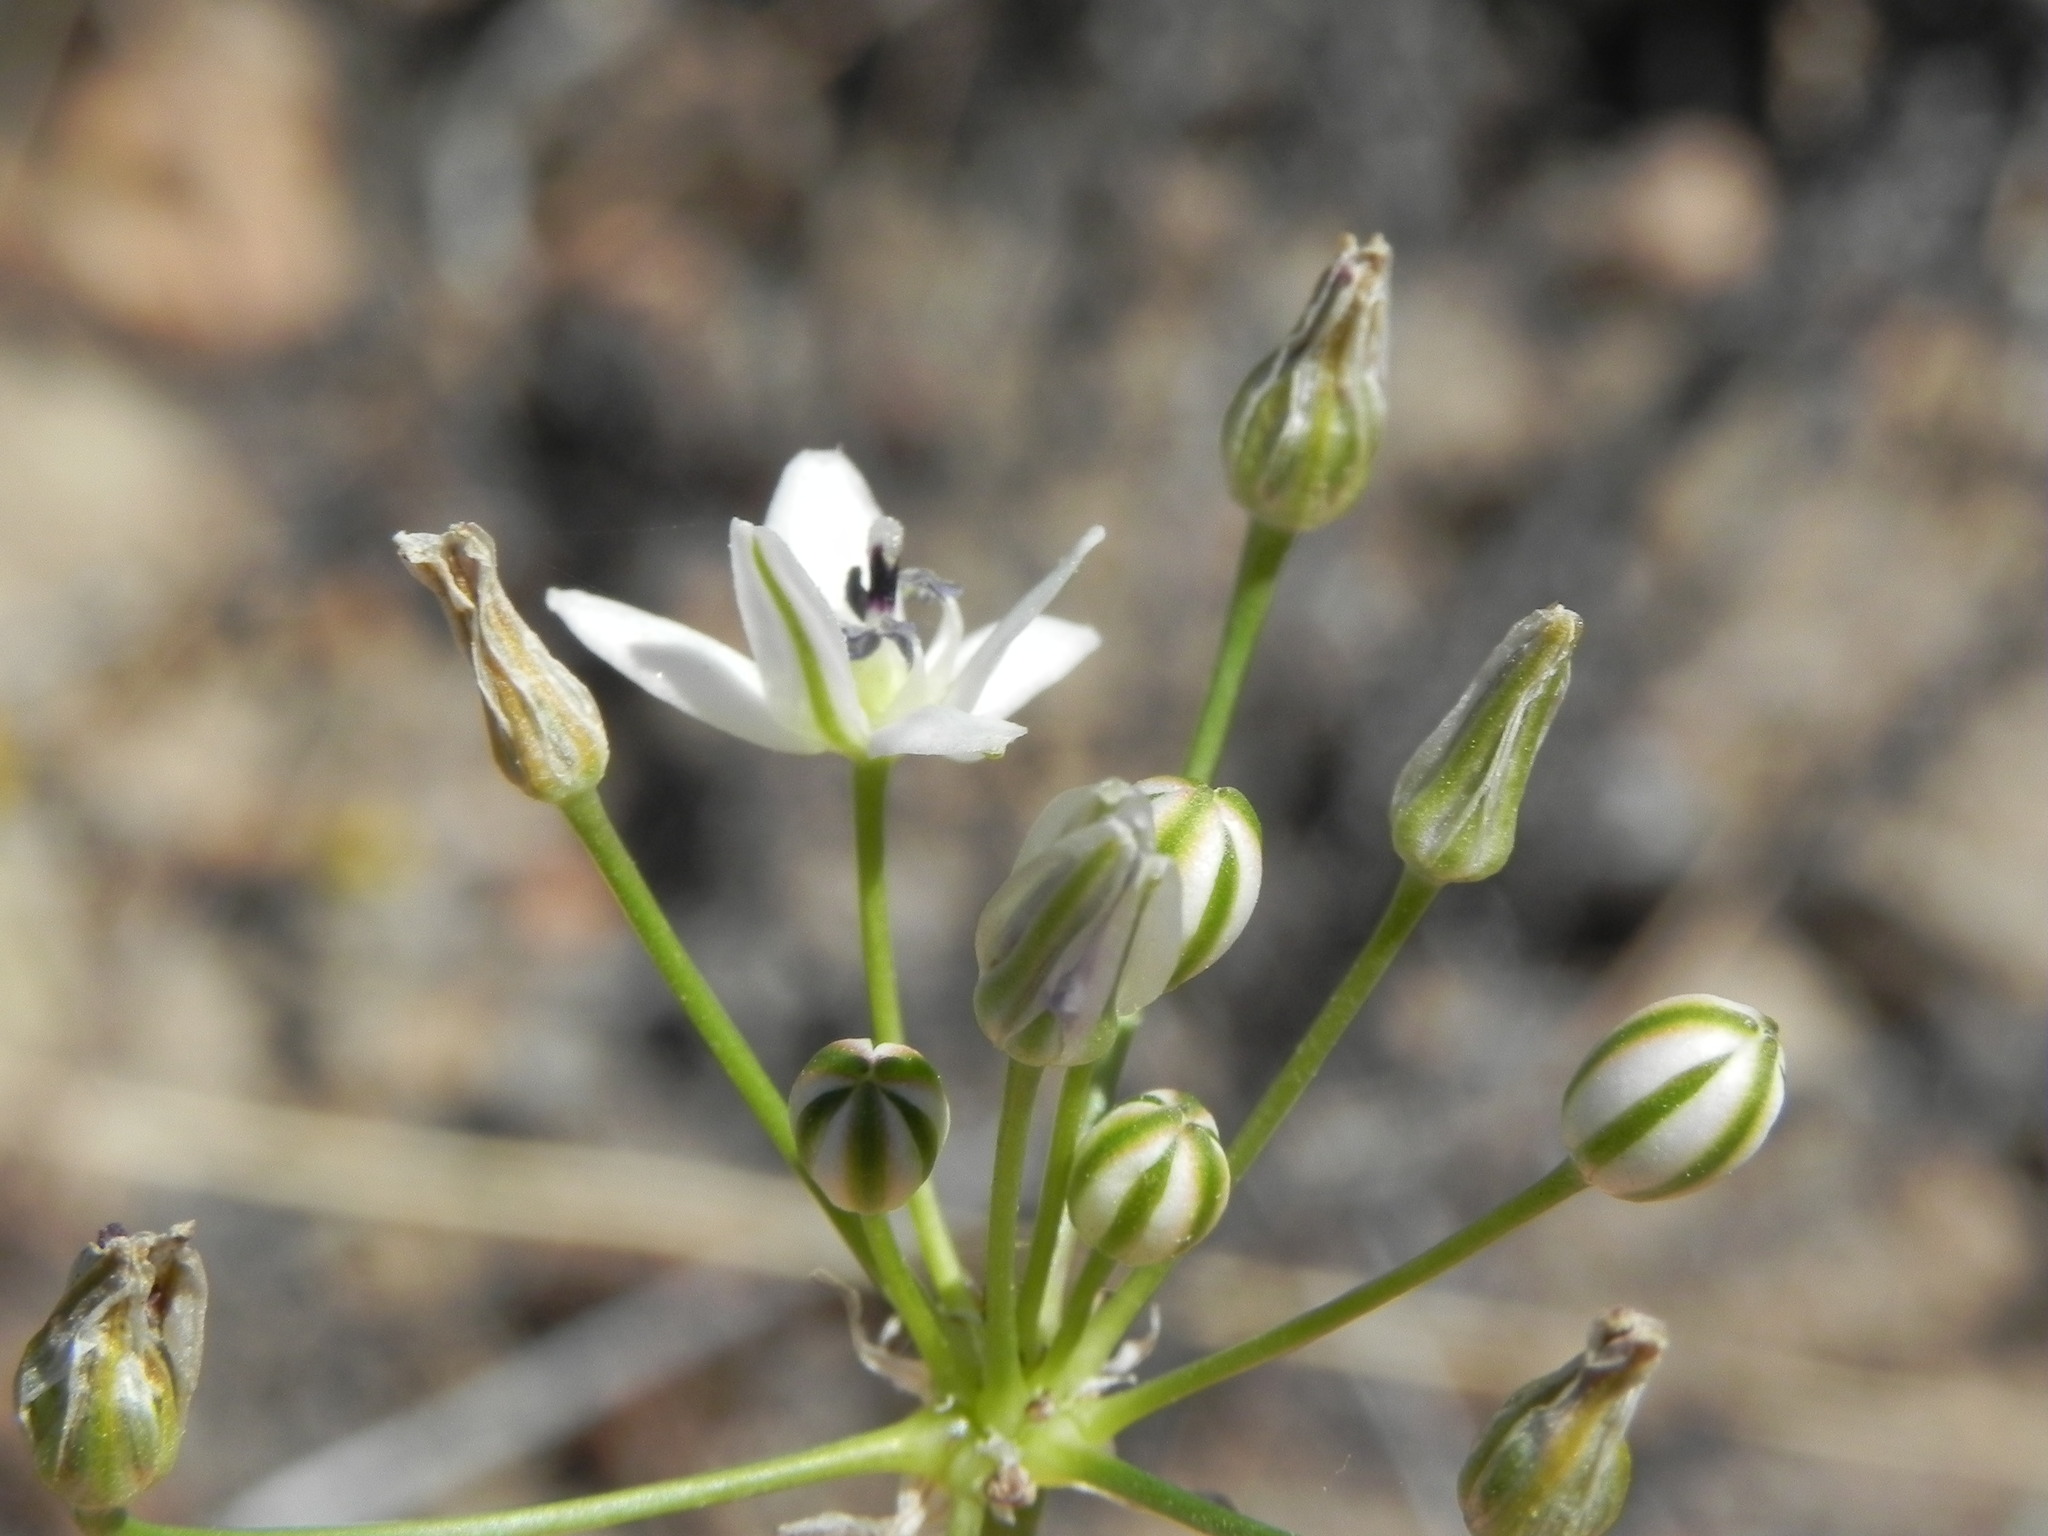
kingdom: Plantae
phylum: Tracheophyta
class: Liliopsida
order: Asparagales
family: Asparagaceae
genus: Muilla
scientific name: Muilla maritima
